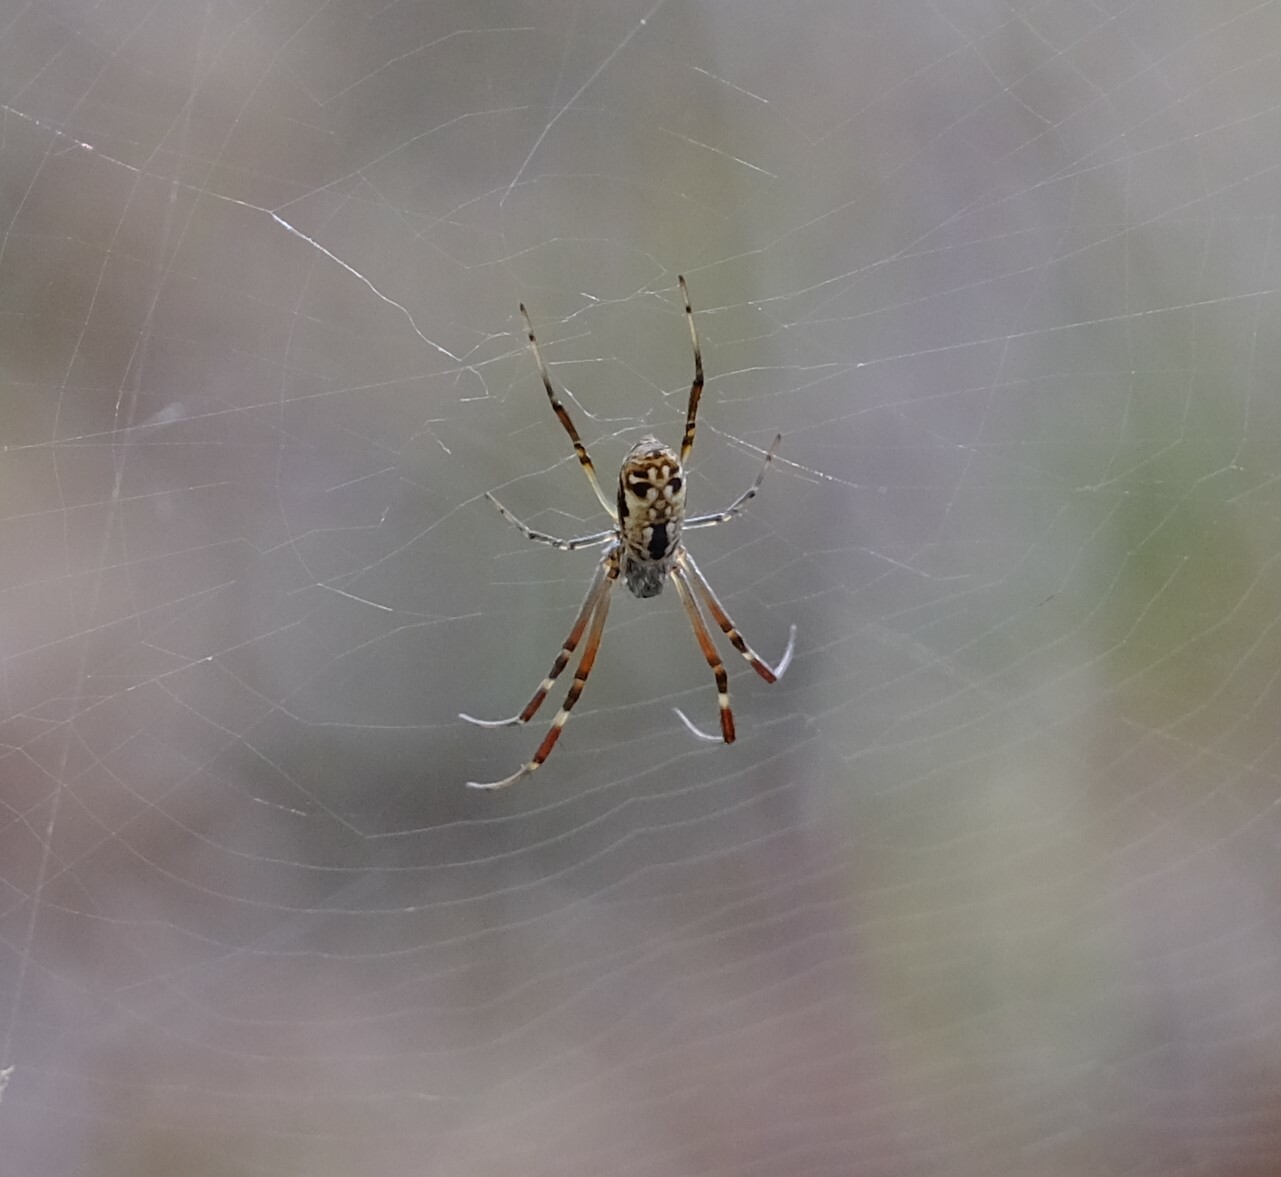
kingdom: Animalia
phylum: Arthropoda
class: Arachnida
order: Araneae
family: Araneidae
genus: Trichonephila
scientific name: Trichonephila edulis
